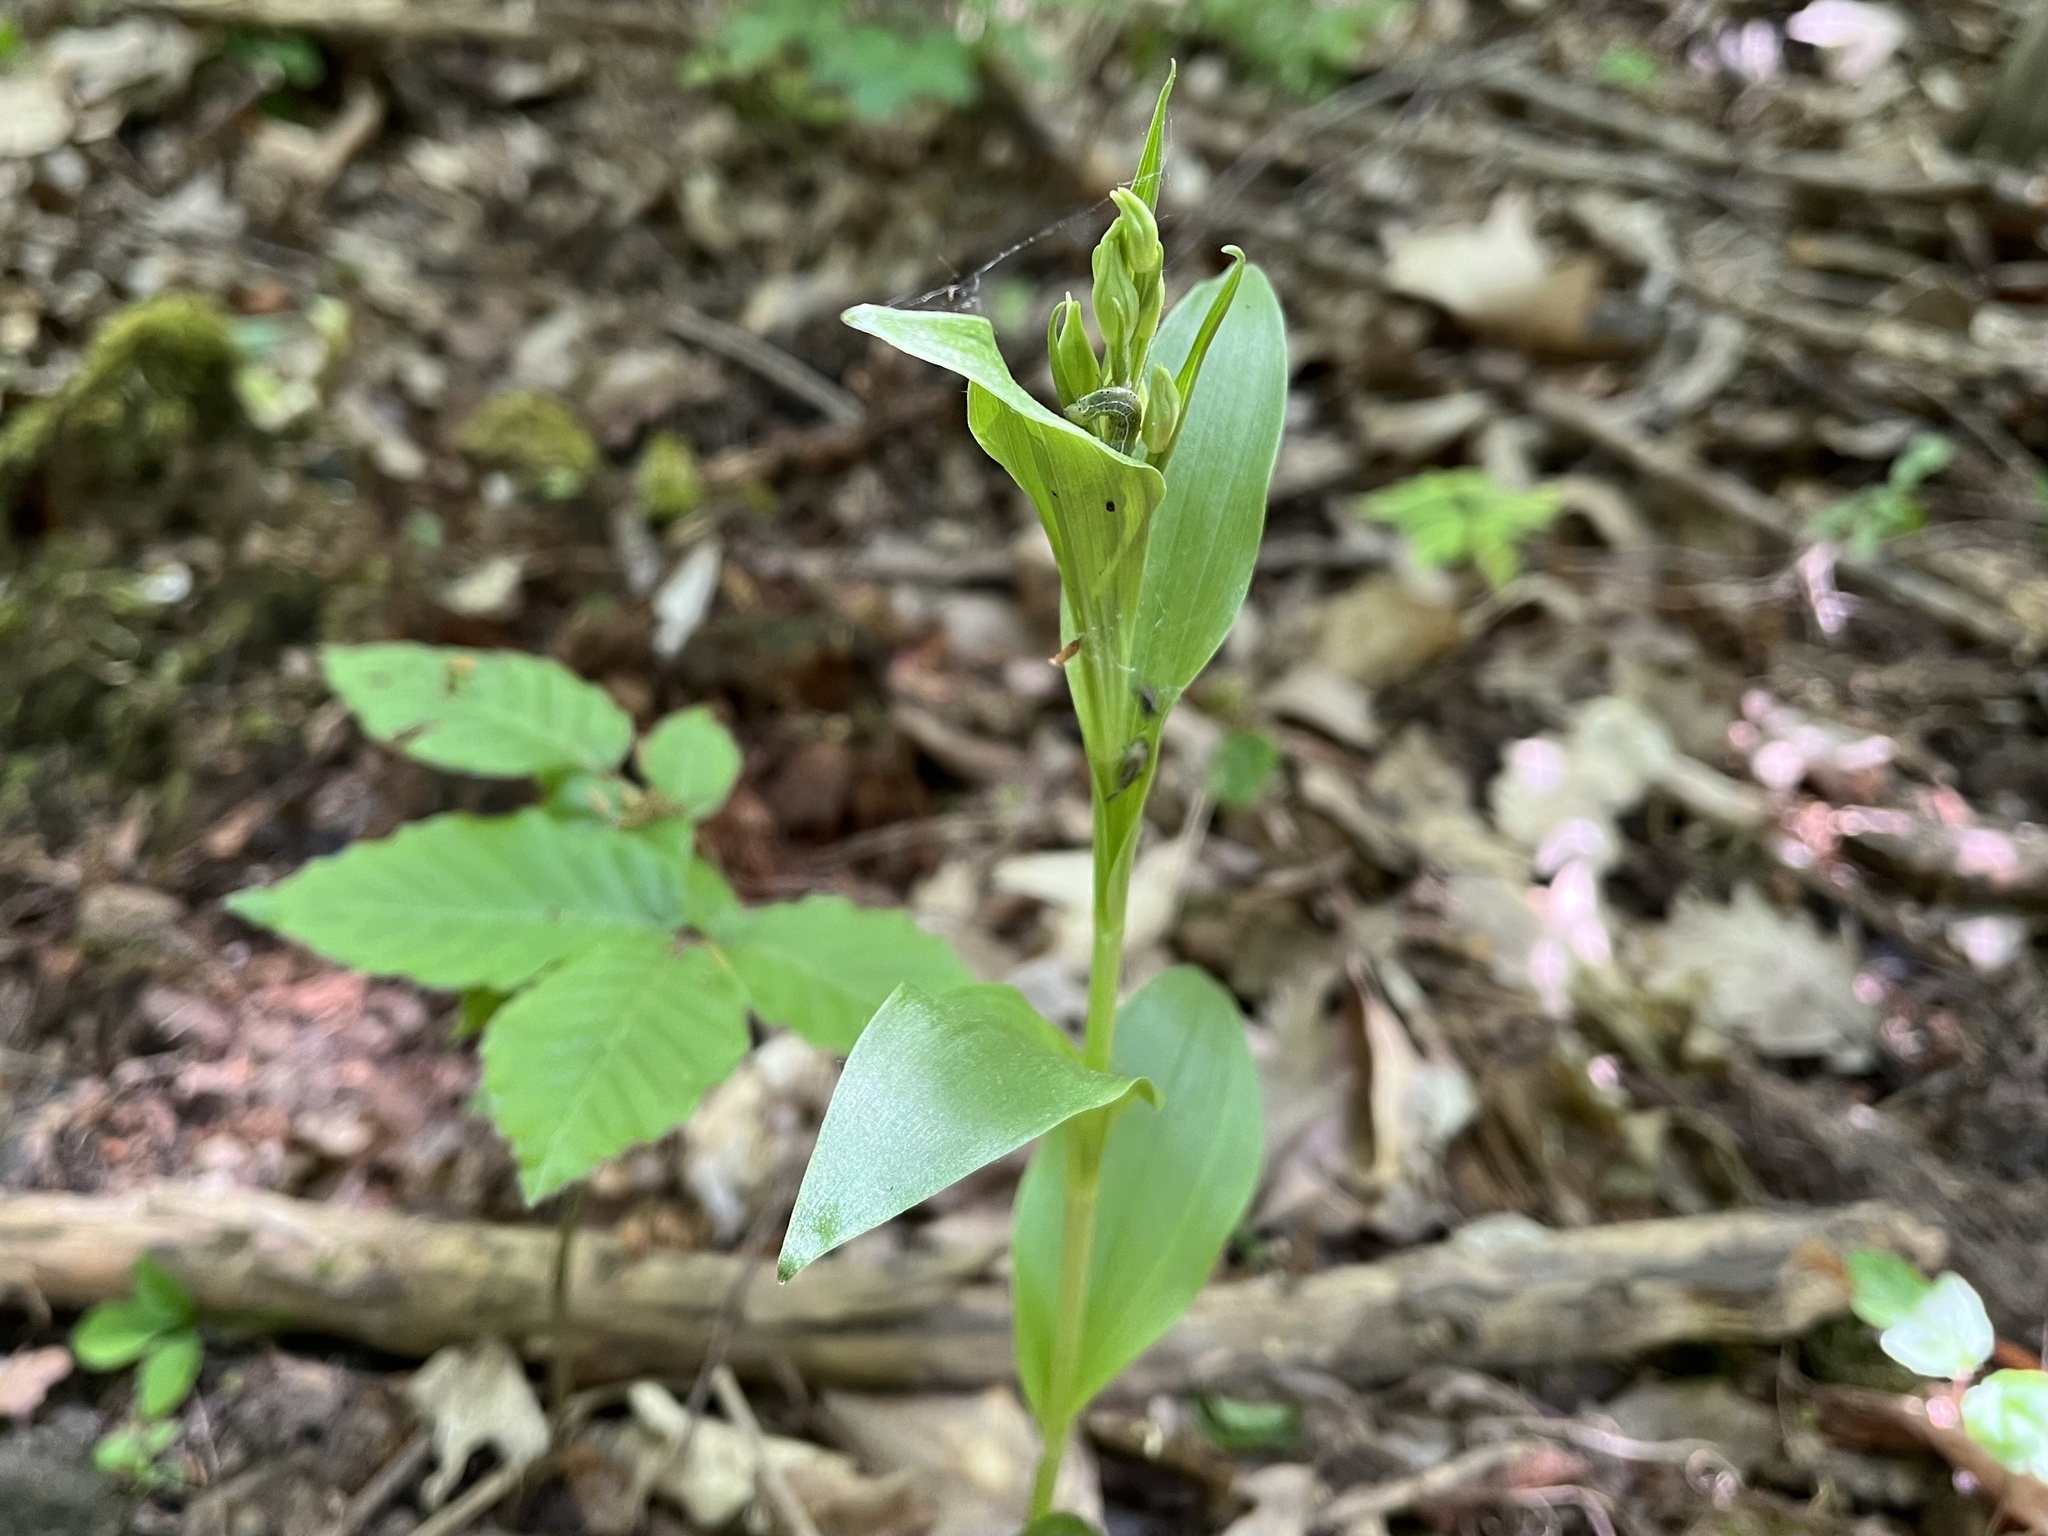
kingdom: Plantae
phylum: Tracheophyta
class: Liliopsida
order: Asparagales
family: Orchidaceae
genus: Cephalanthera
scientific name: Cephalanthera damasonium
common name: White helleborine
